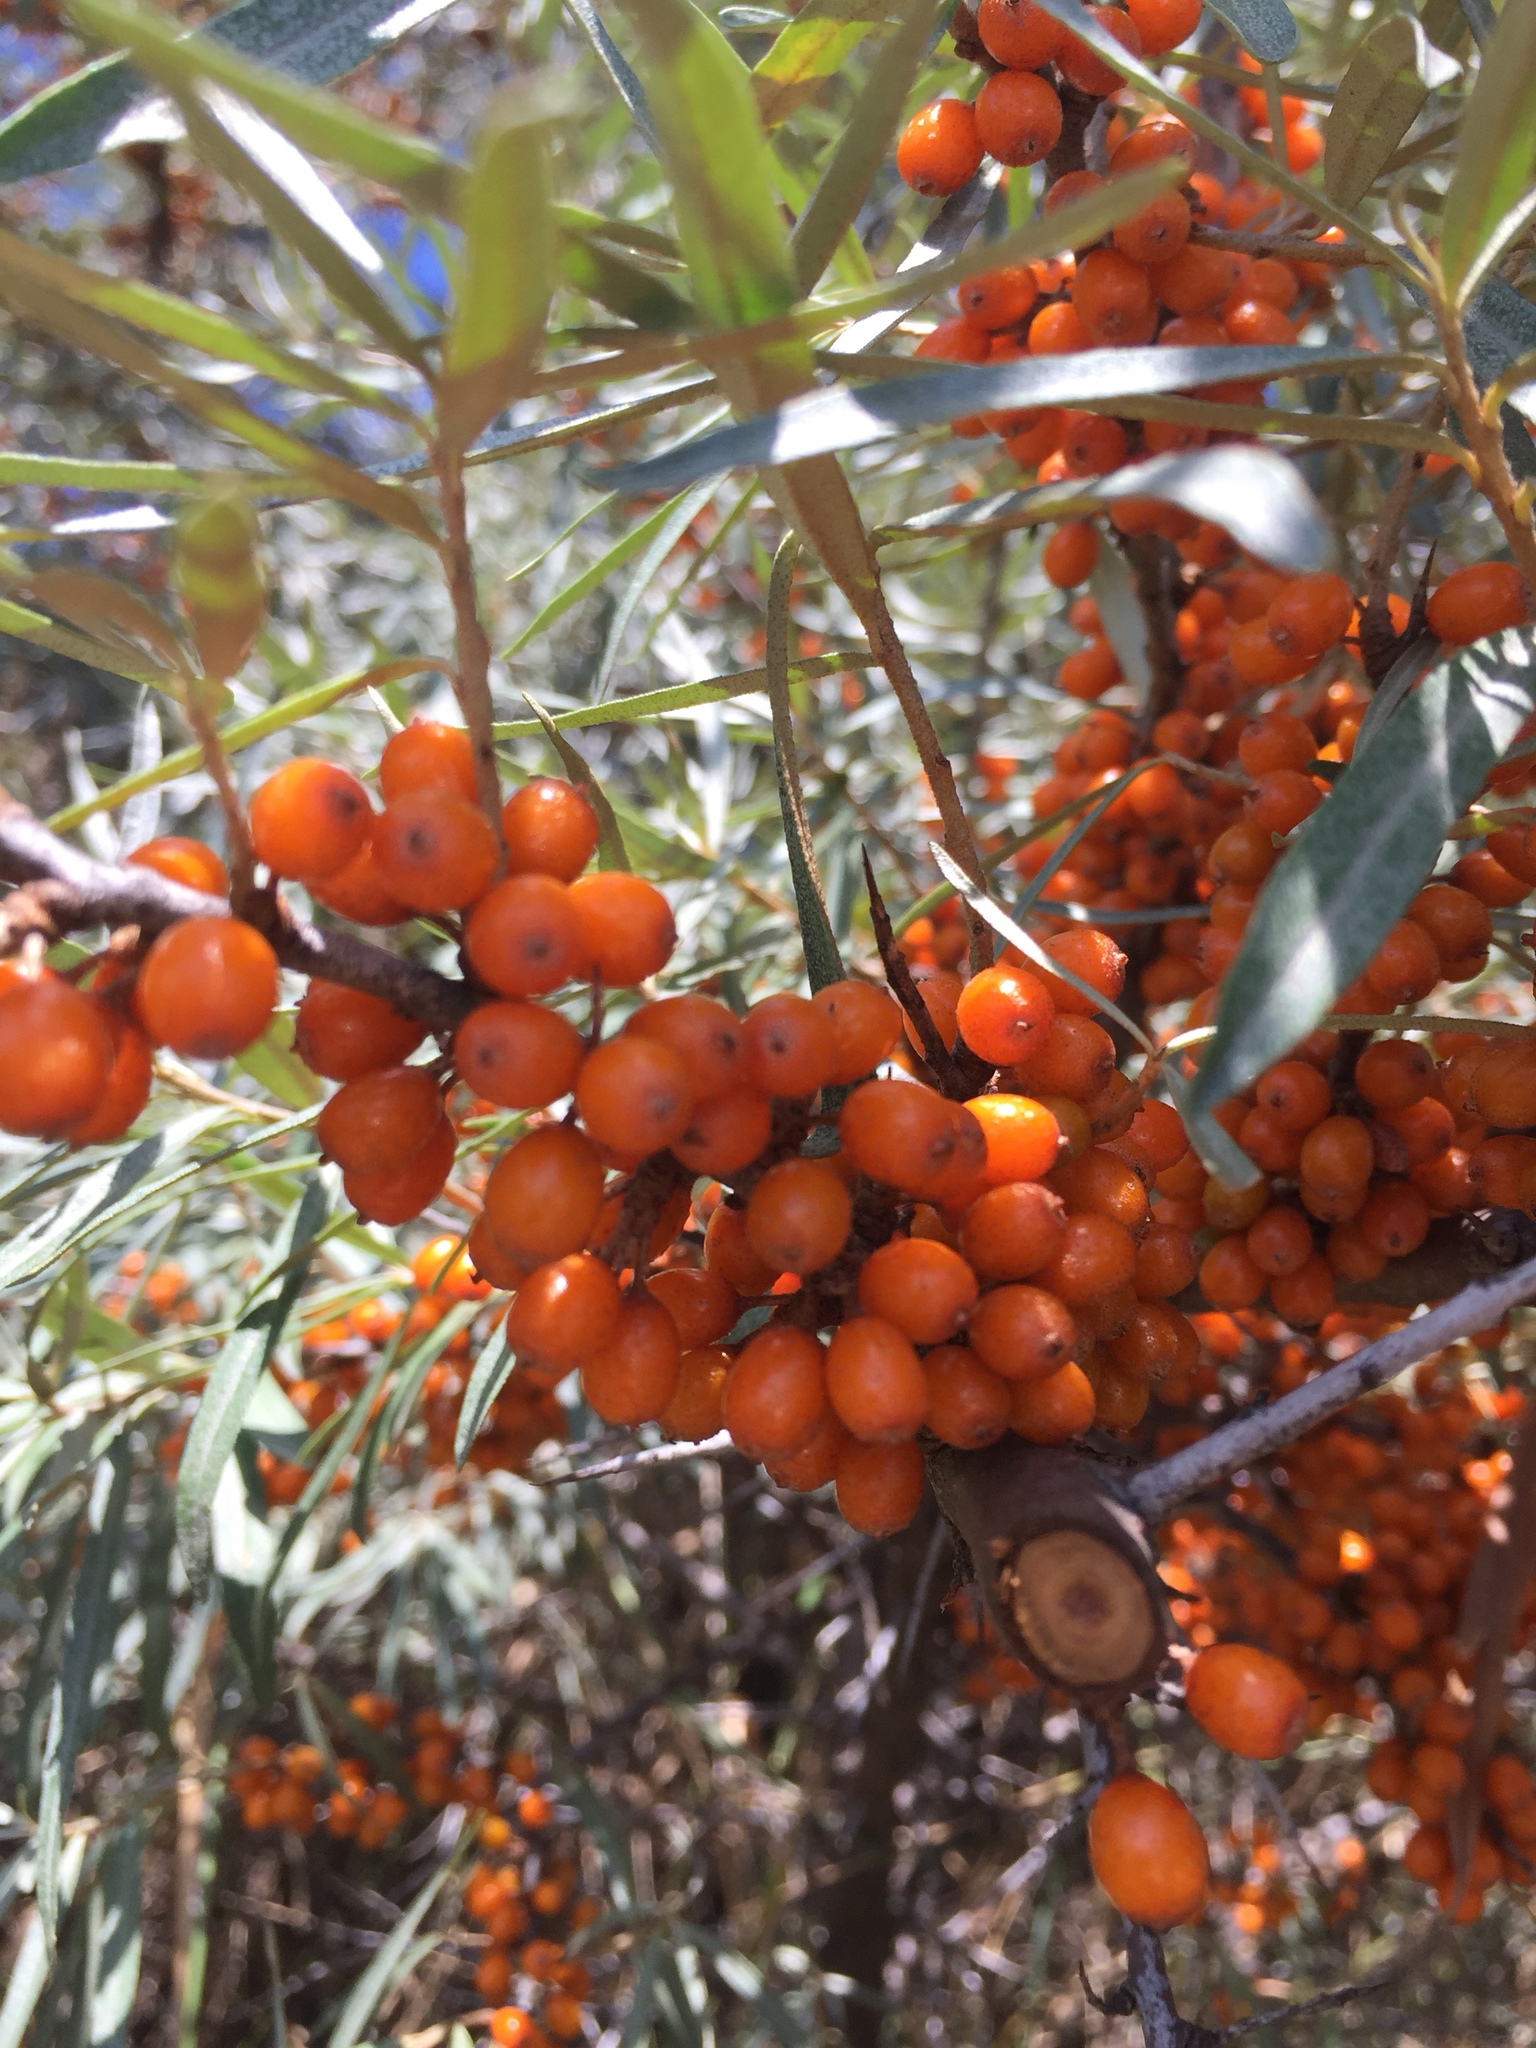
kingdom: Plantae
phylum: Tracheophyta
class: Magnoliopsida
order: Rosales
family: Elaeagnaceae
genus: Hippophae
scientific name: Hippophae rhamnoides
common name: Sea-buckthorn
